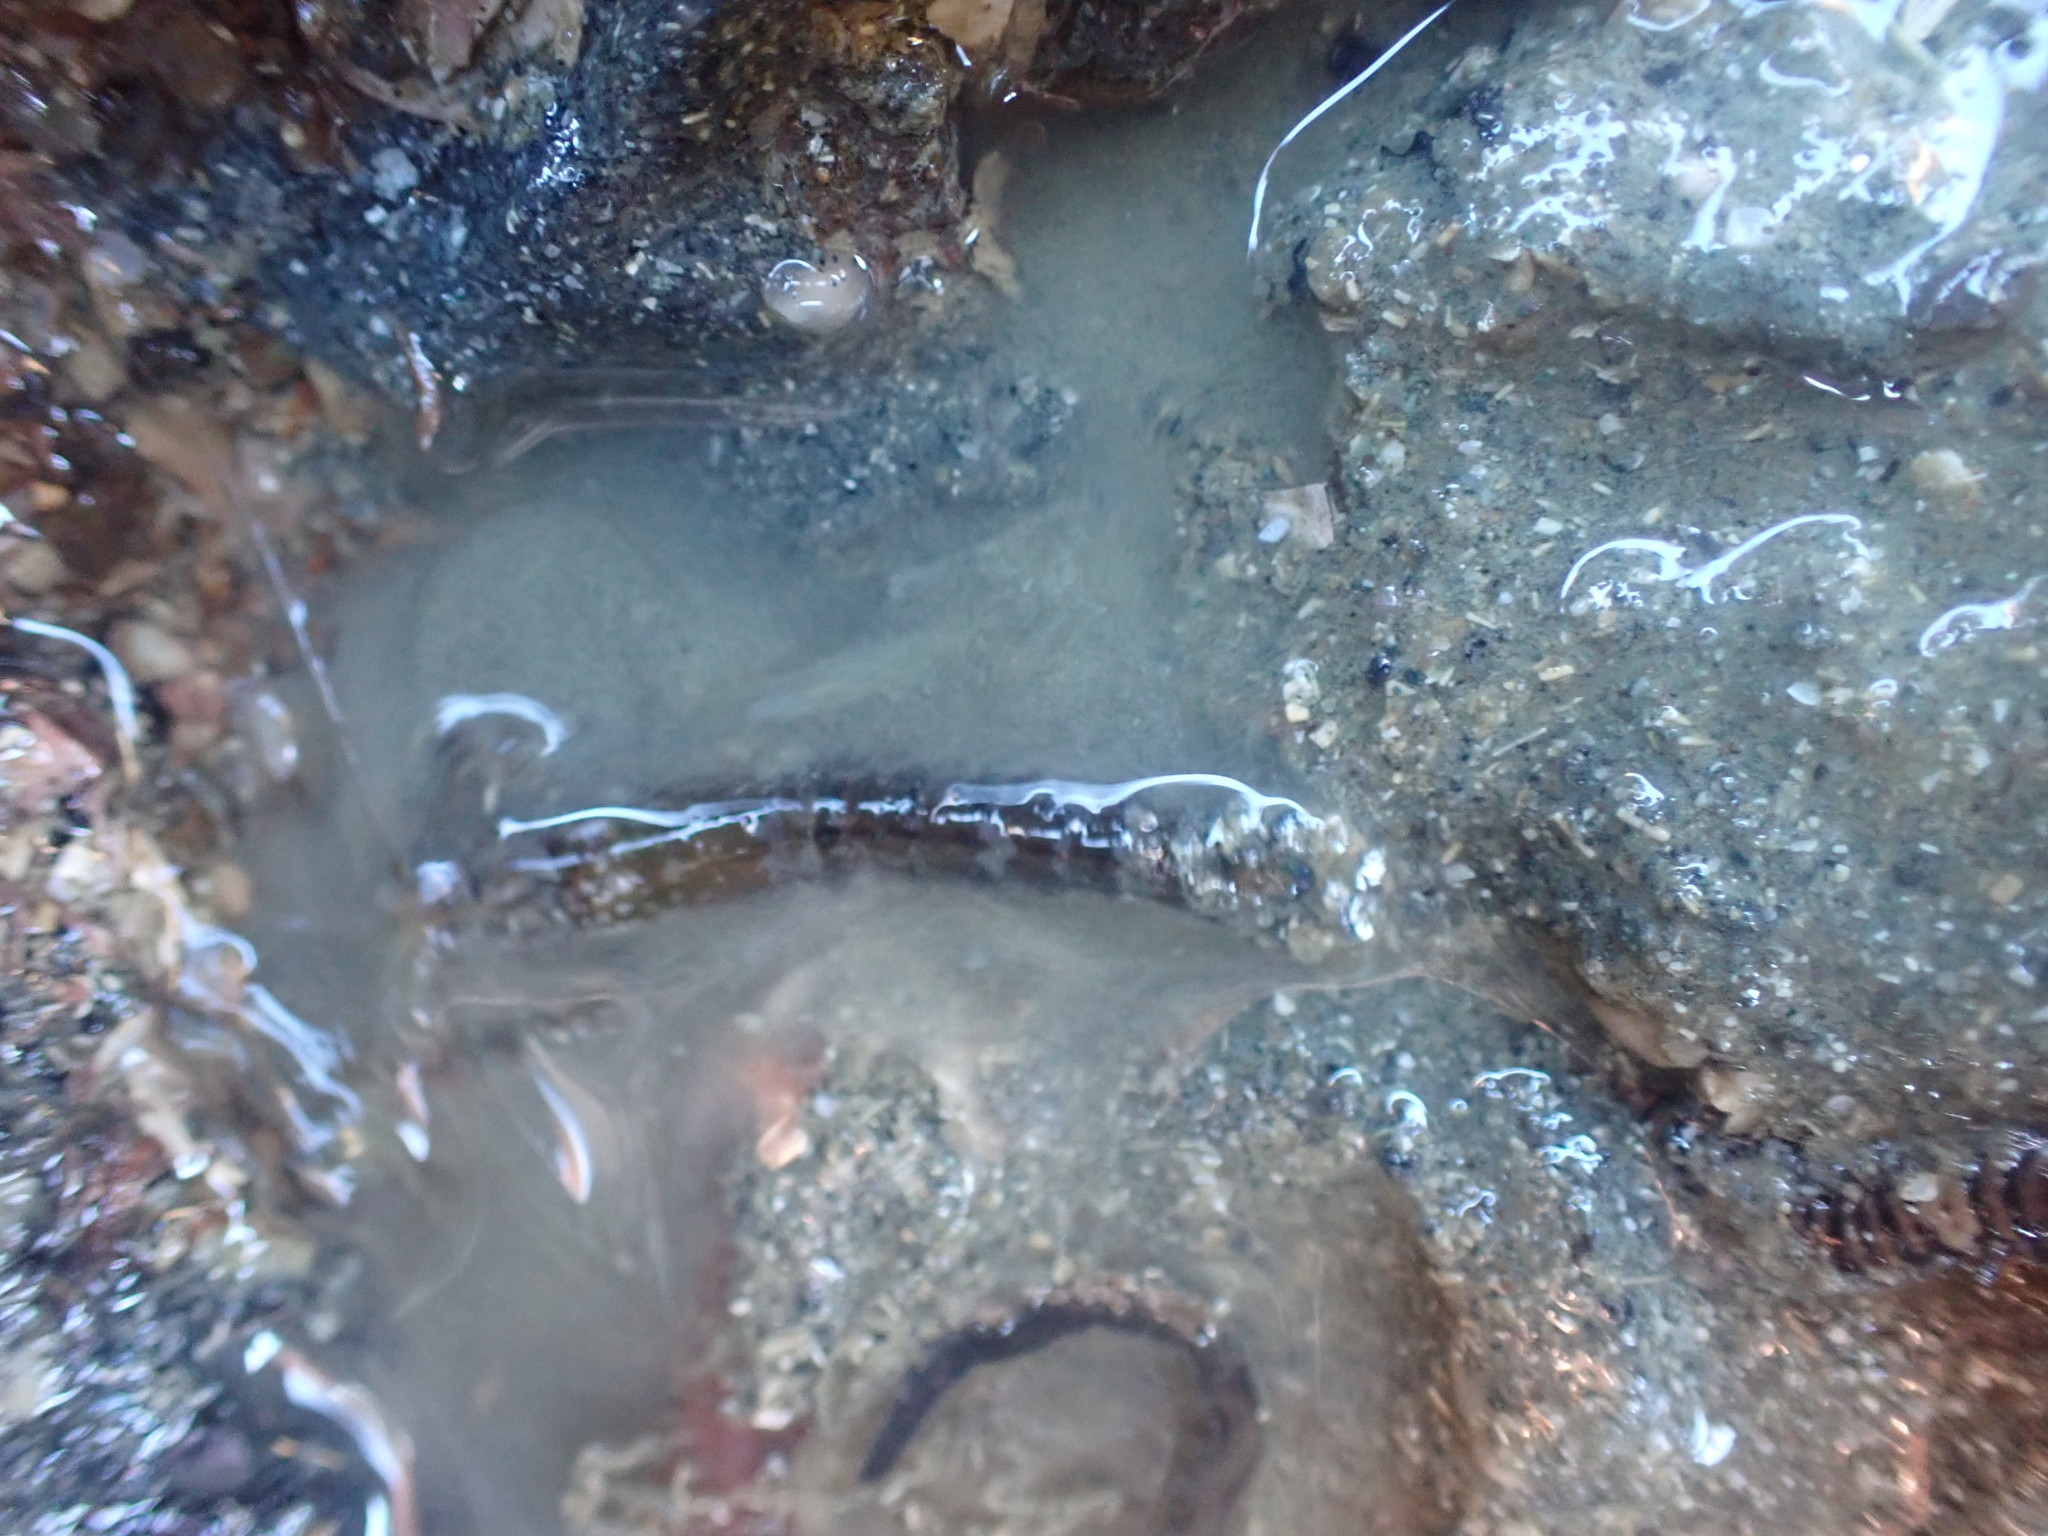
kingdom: Animalia
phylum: Arthropoda
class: Malacostraca
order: Decapoda
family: Alpheidae
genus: Alpheus
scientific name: Alpheus novaezealandiae
